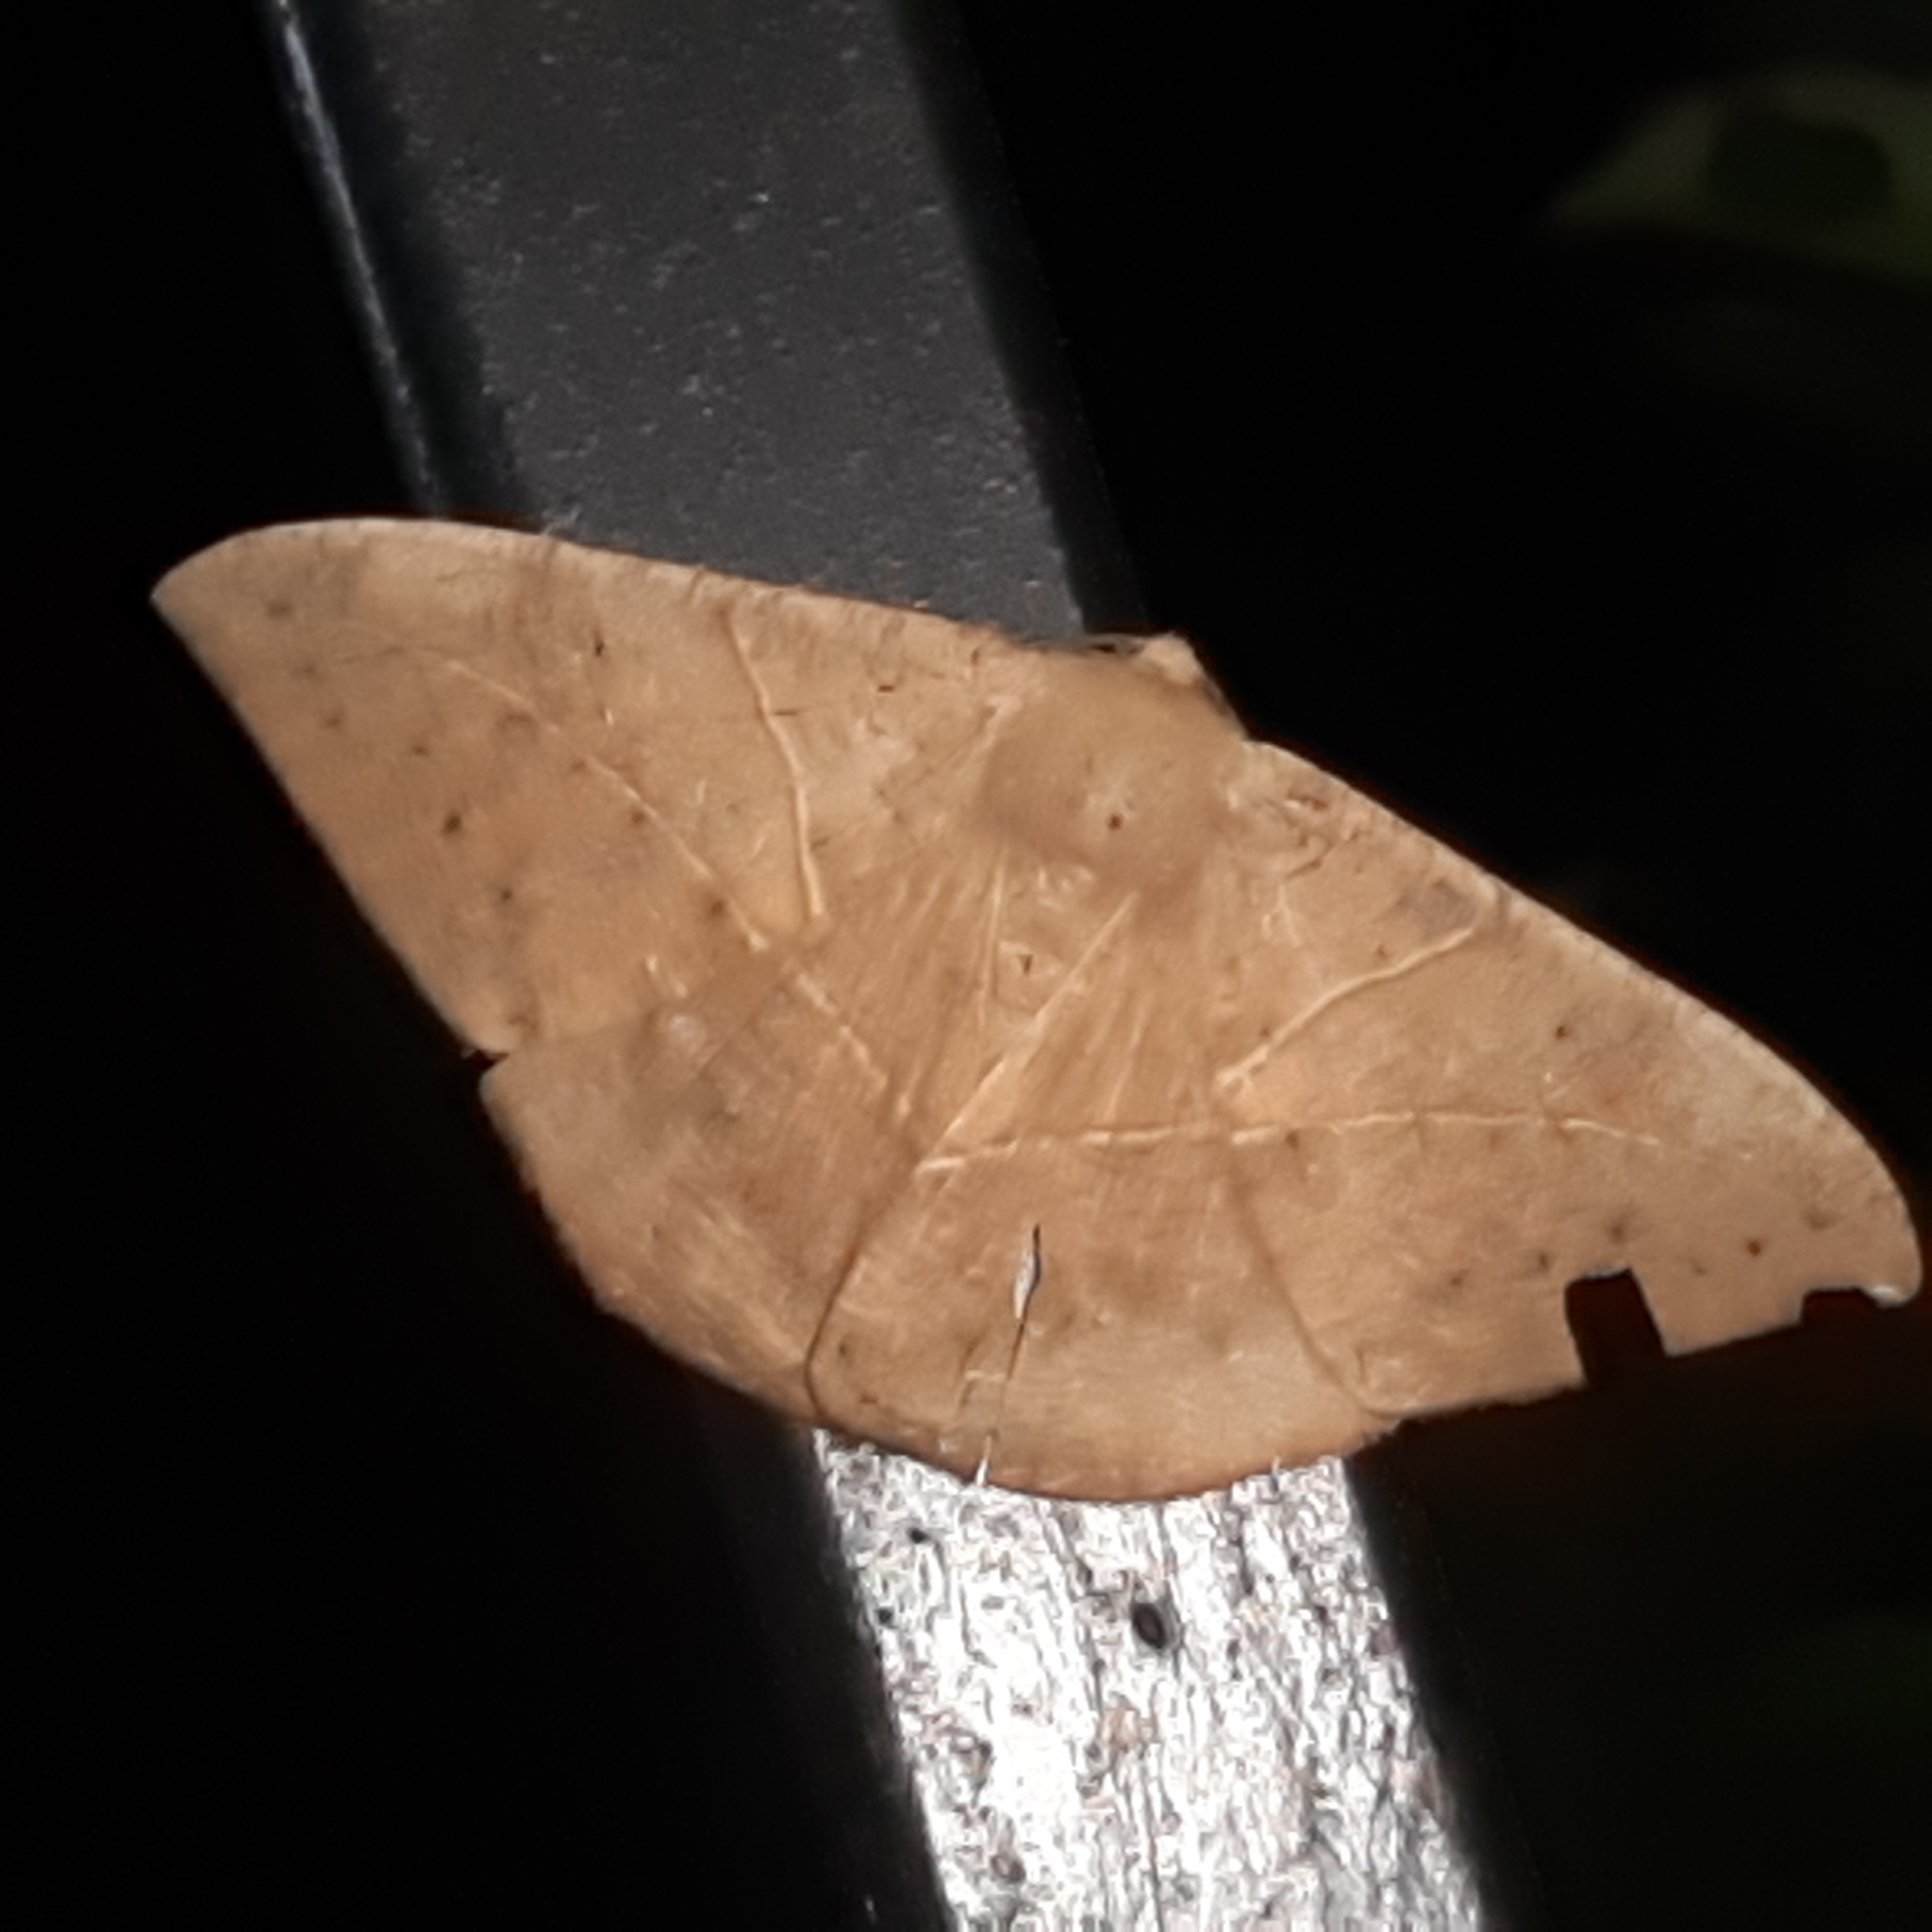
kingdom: Animalia
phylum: Arthropoda
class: Insecta
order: Lepidoptera
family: Geometridae
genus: Oxydia
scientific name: Oxydia trychiata
